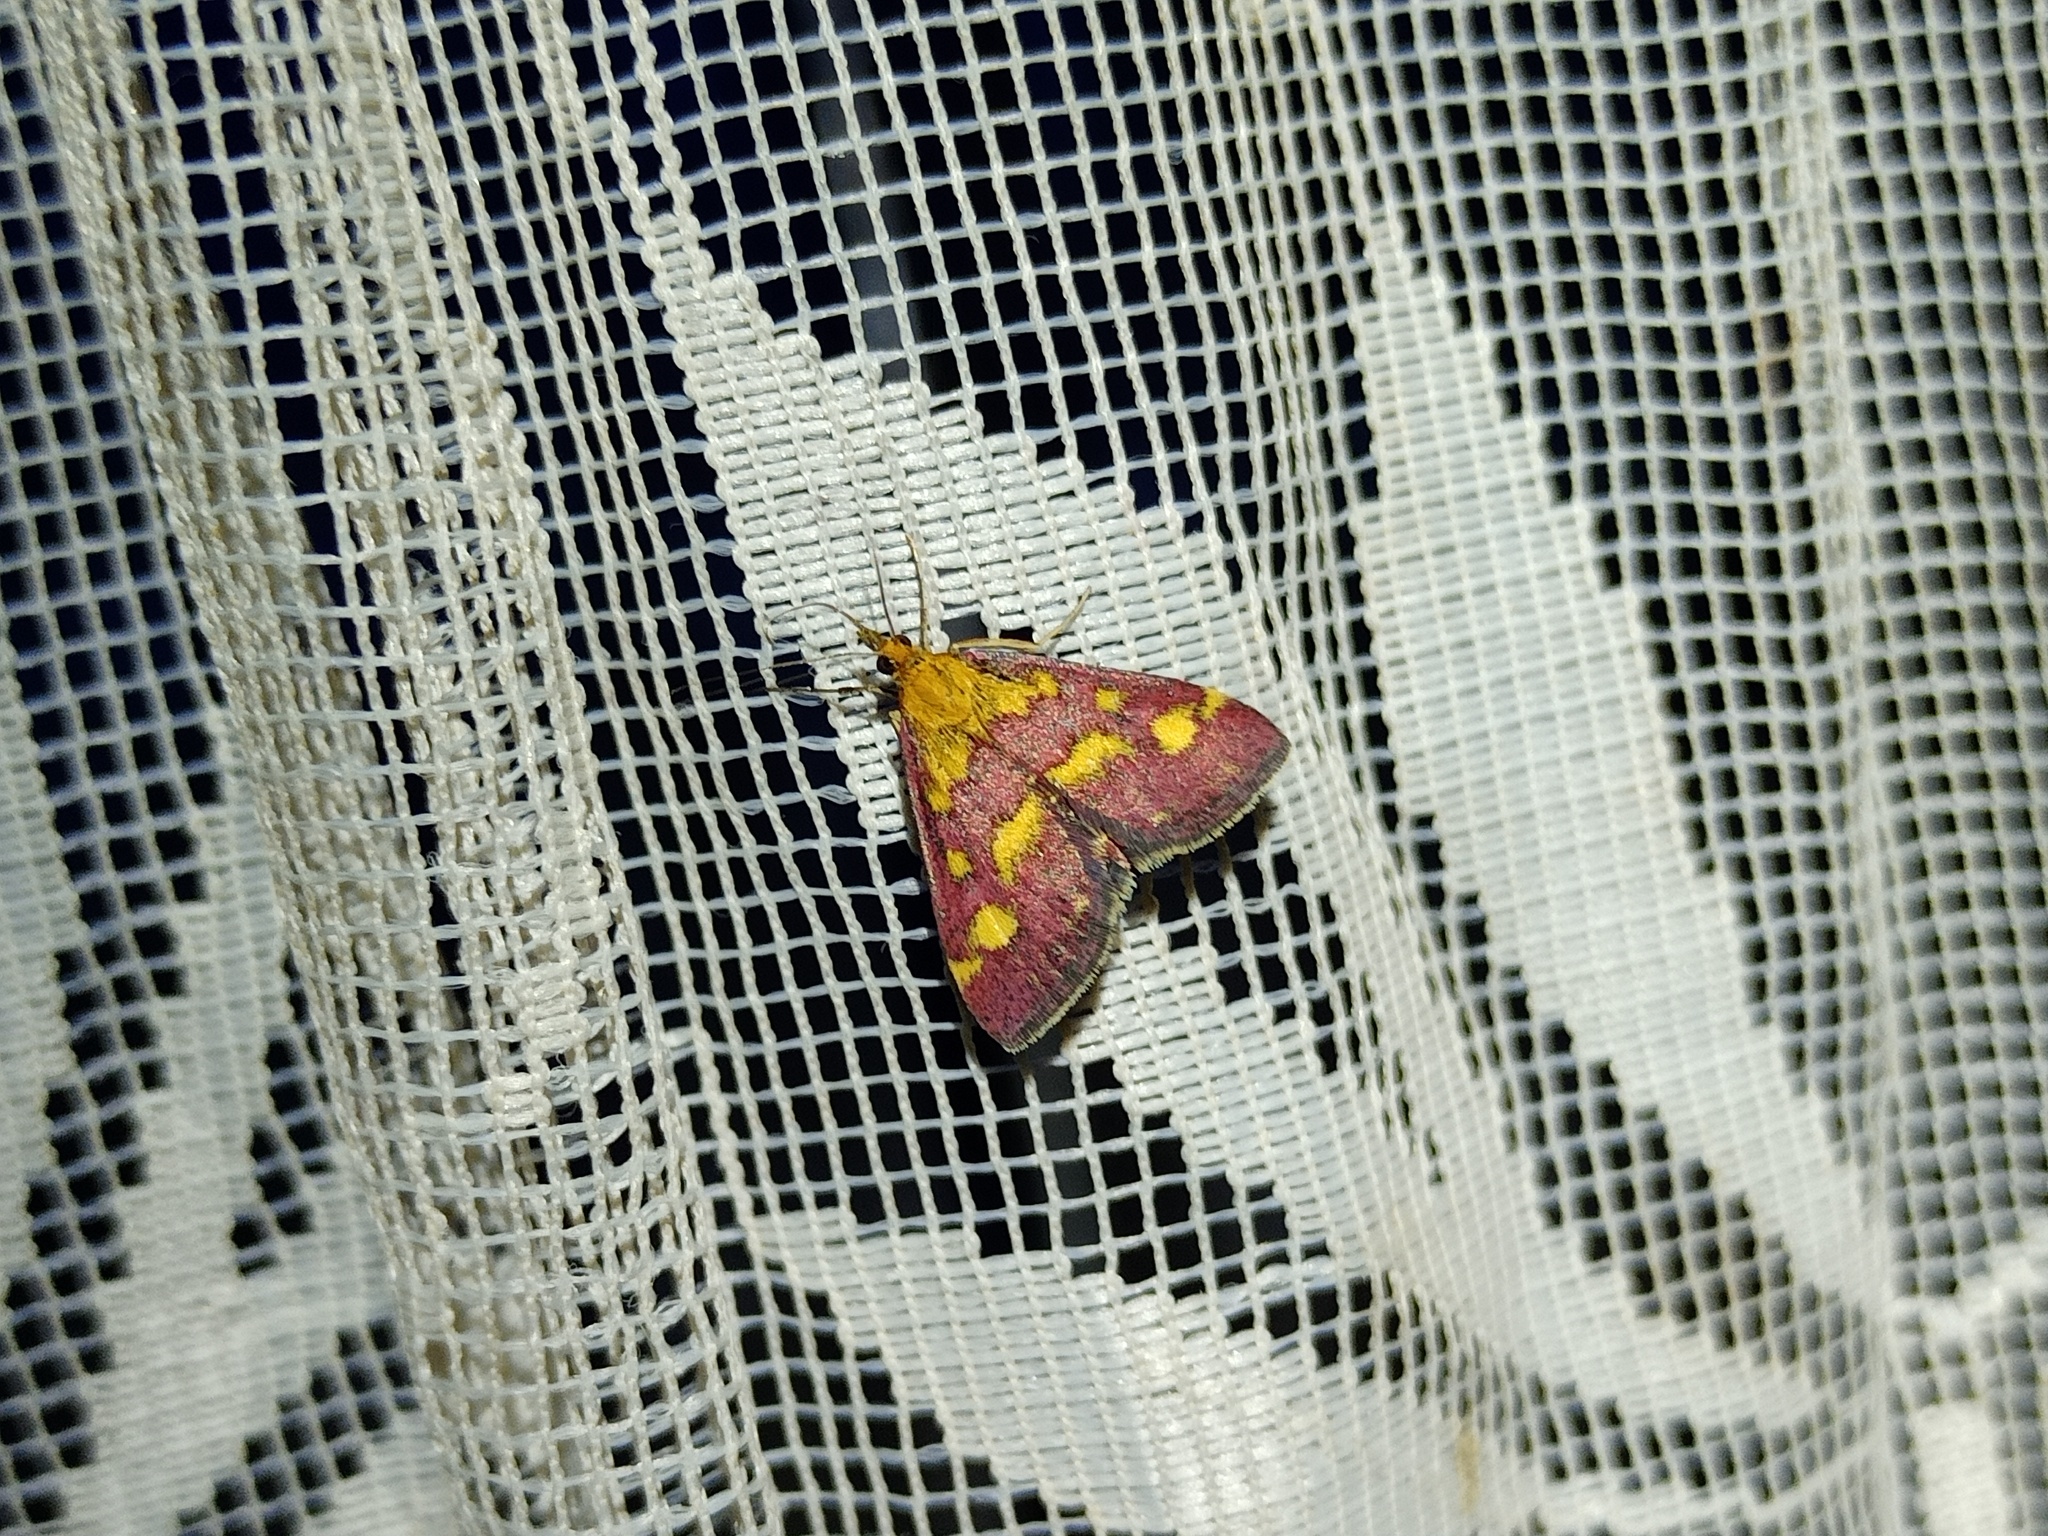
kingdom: Animalia
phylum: Arthropoda
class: Insecta
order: Lepidoptera
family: Crambidae
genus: Pyrausta
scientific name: Pyrausta purpuralis
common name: Common purple & gold
